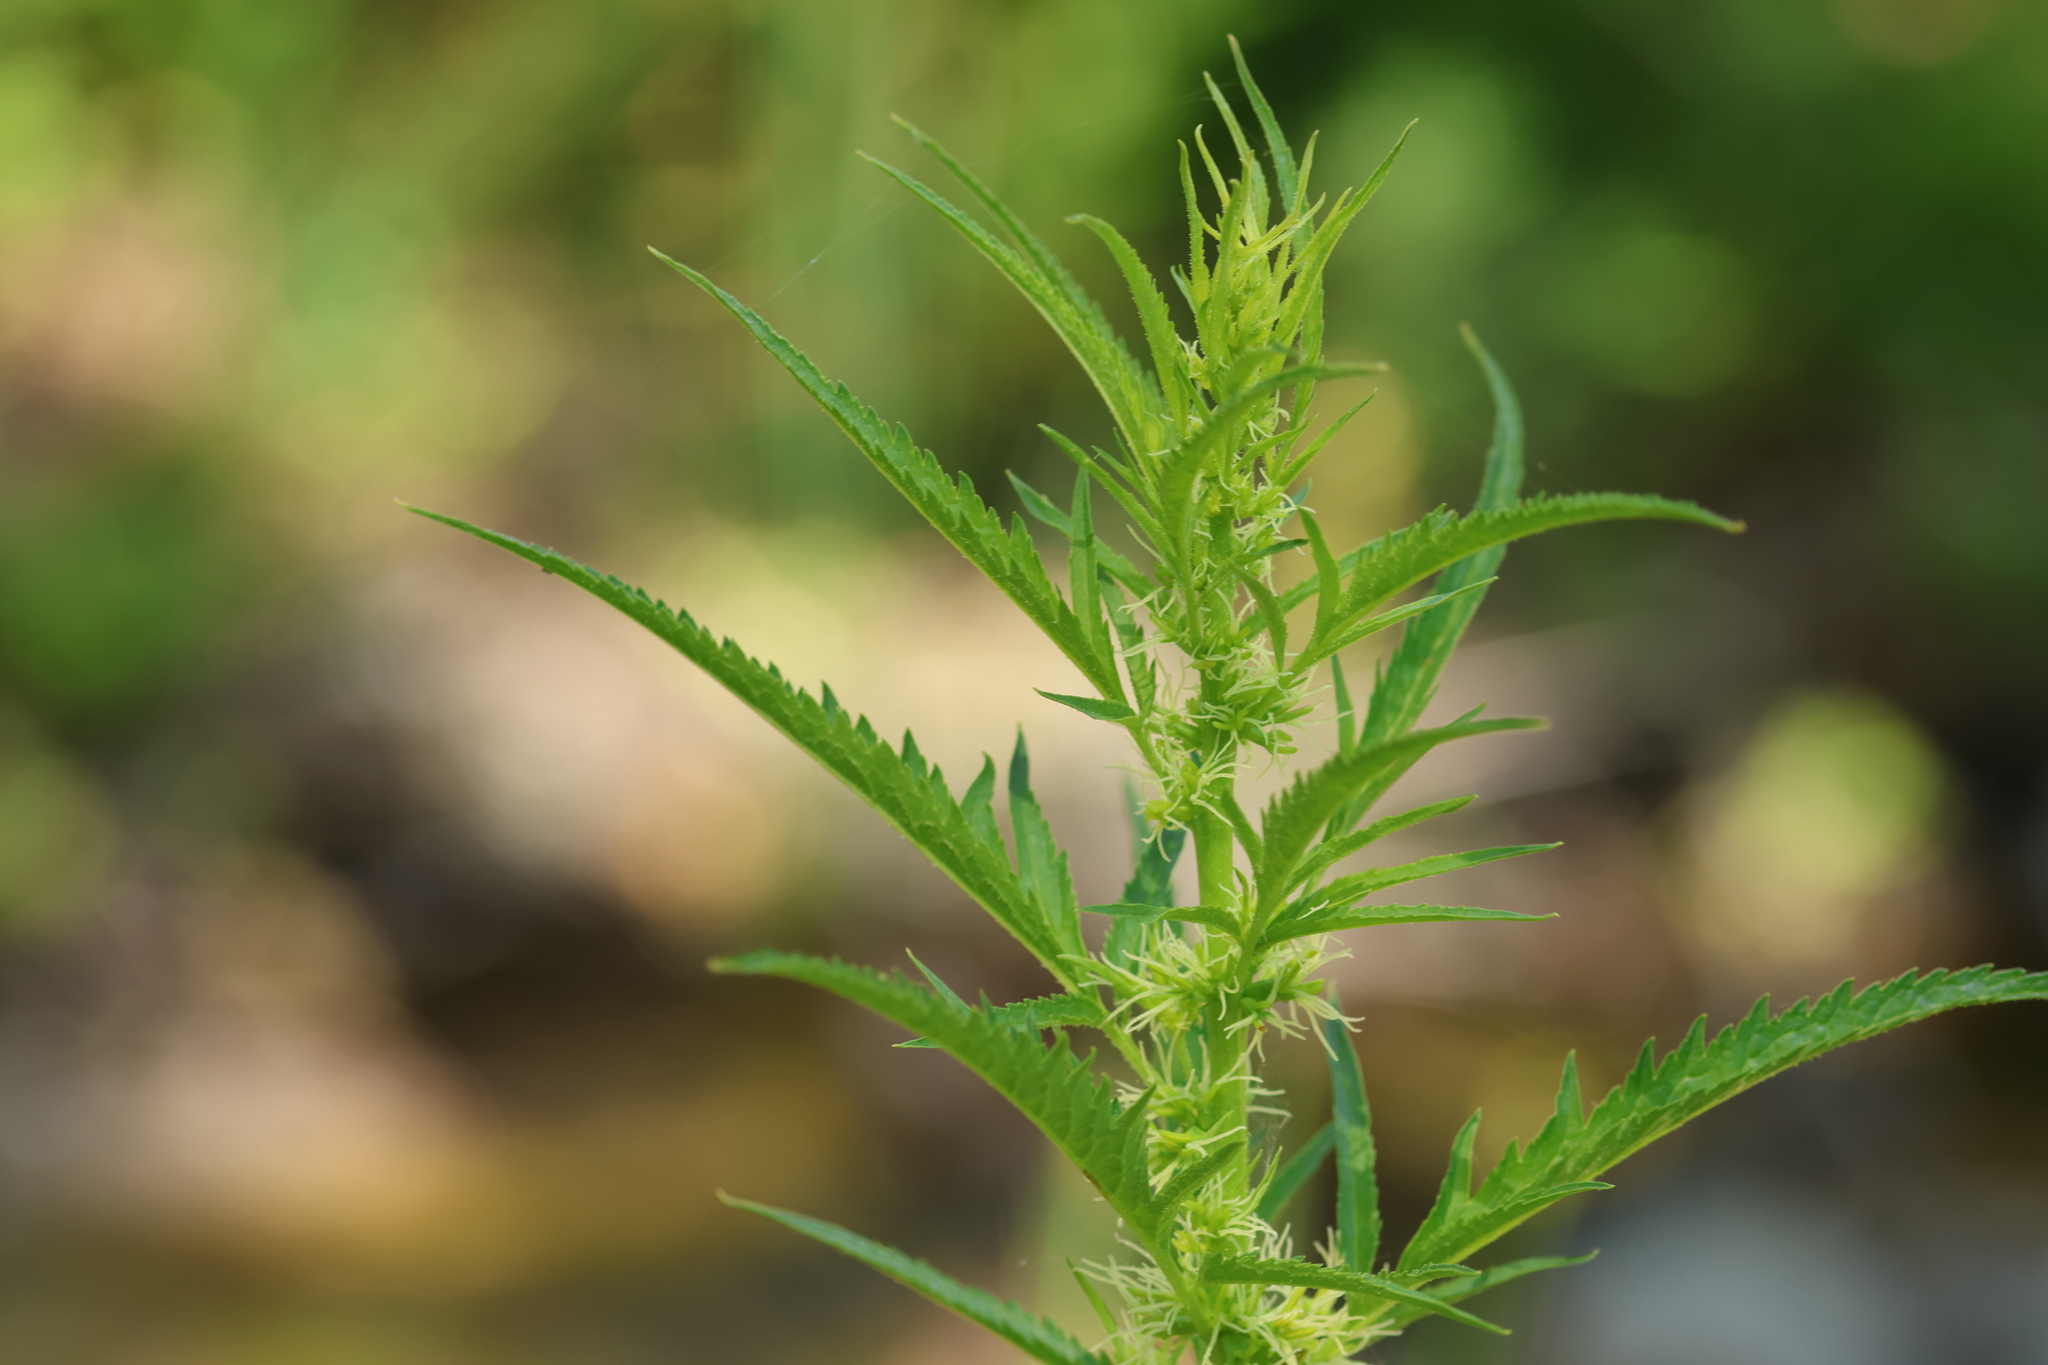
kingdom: Plantae
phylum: Tracheophyta
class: Magnoliopsida
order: Cucurbitales
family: Datiscaceae
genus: Datisca
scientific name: Datisca glomerata
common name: Durango-root
